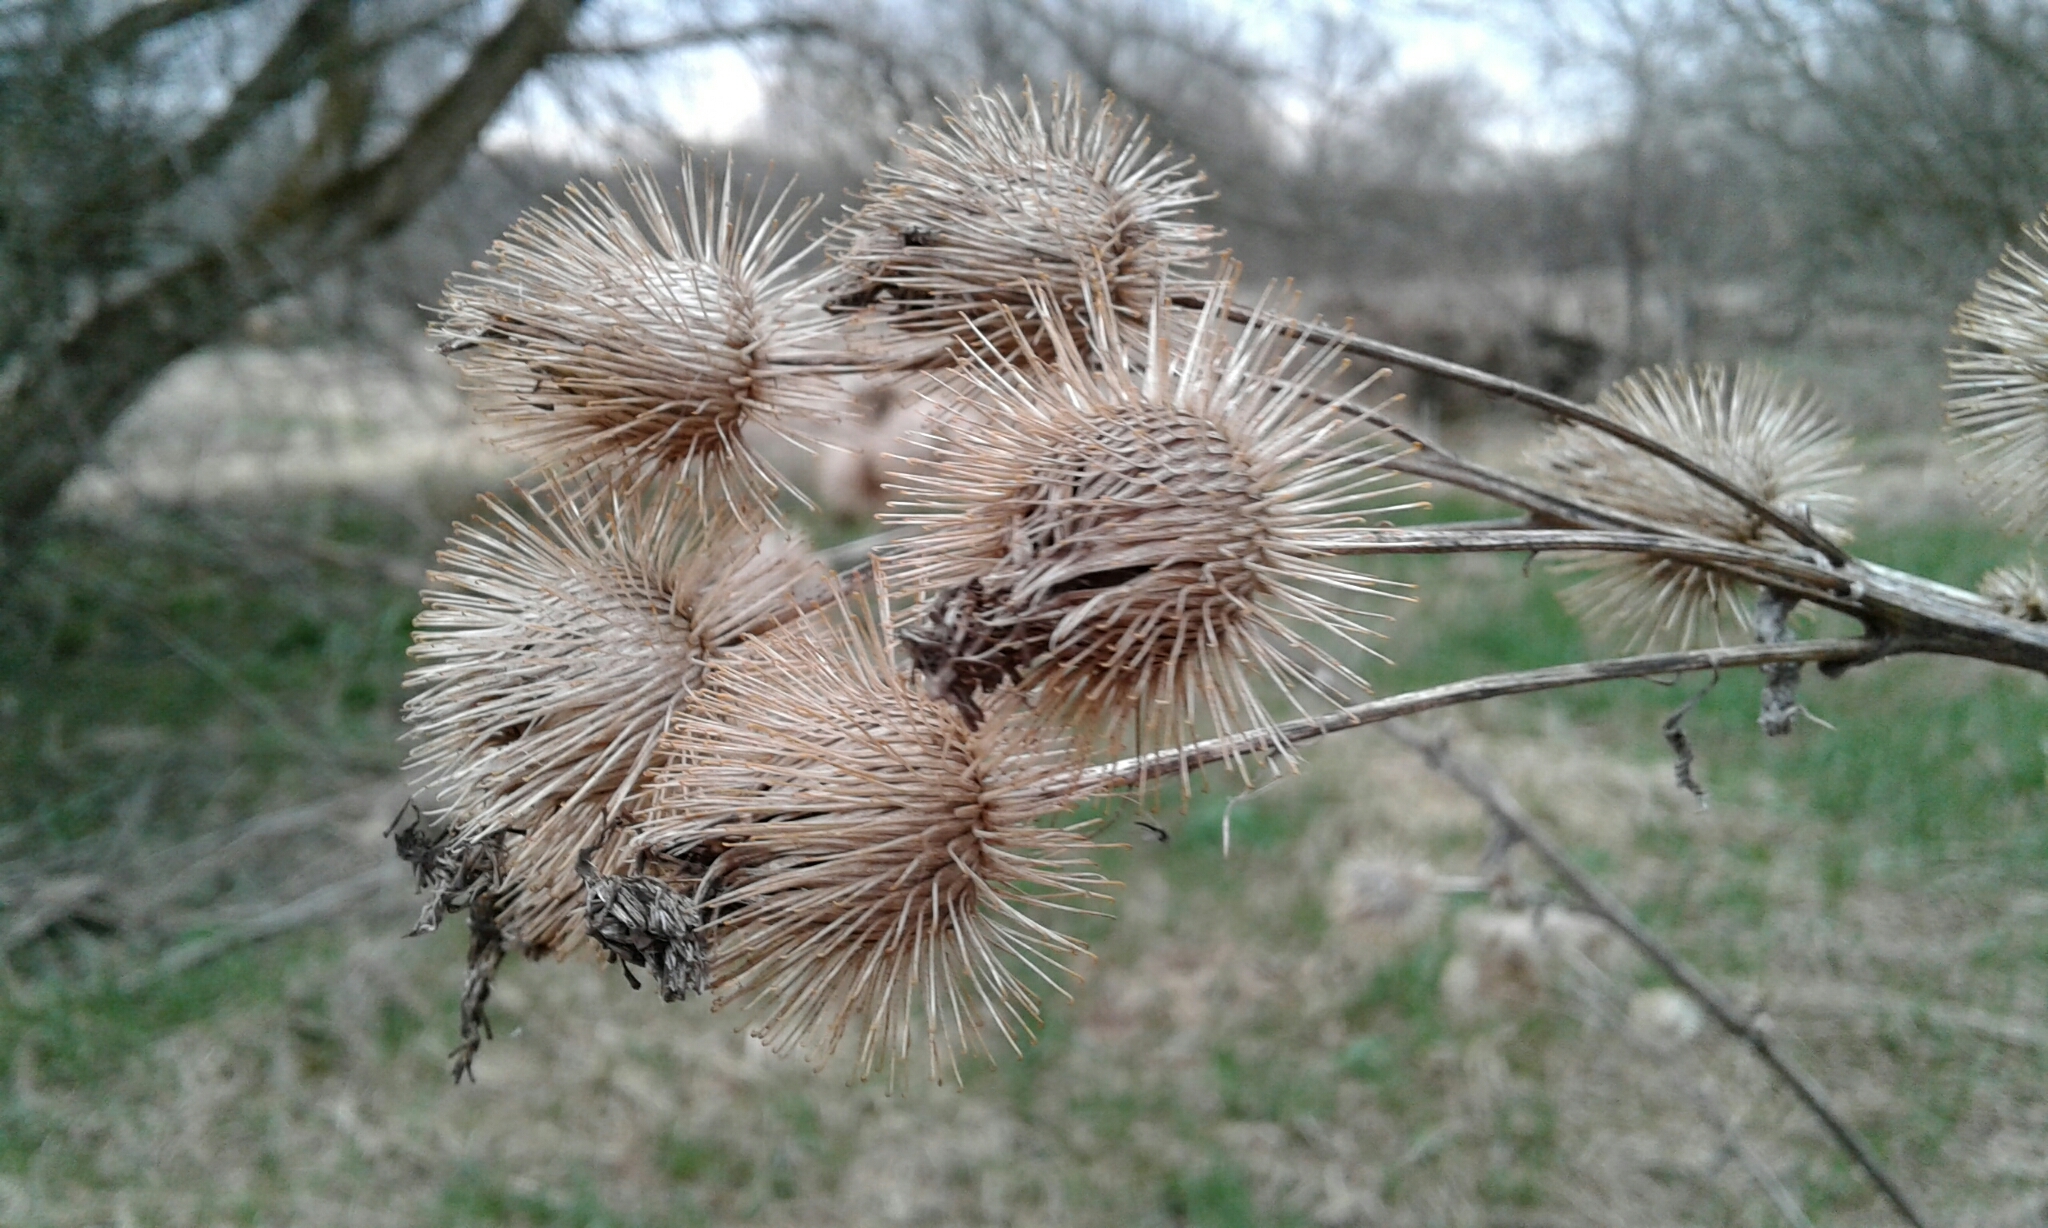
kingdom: Plantae
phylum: Tracheophyta
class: Magnoliopsida
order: Asterales
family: Asteraceae
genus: Arctium
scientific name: Arctium lappa
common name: Greater burdock
